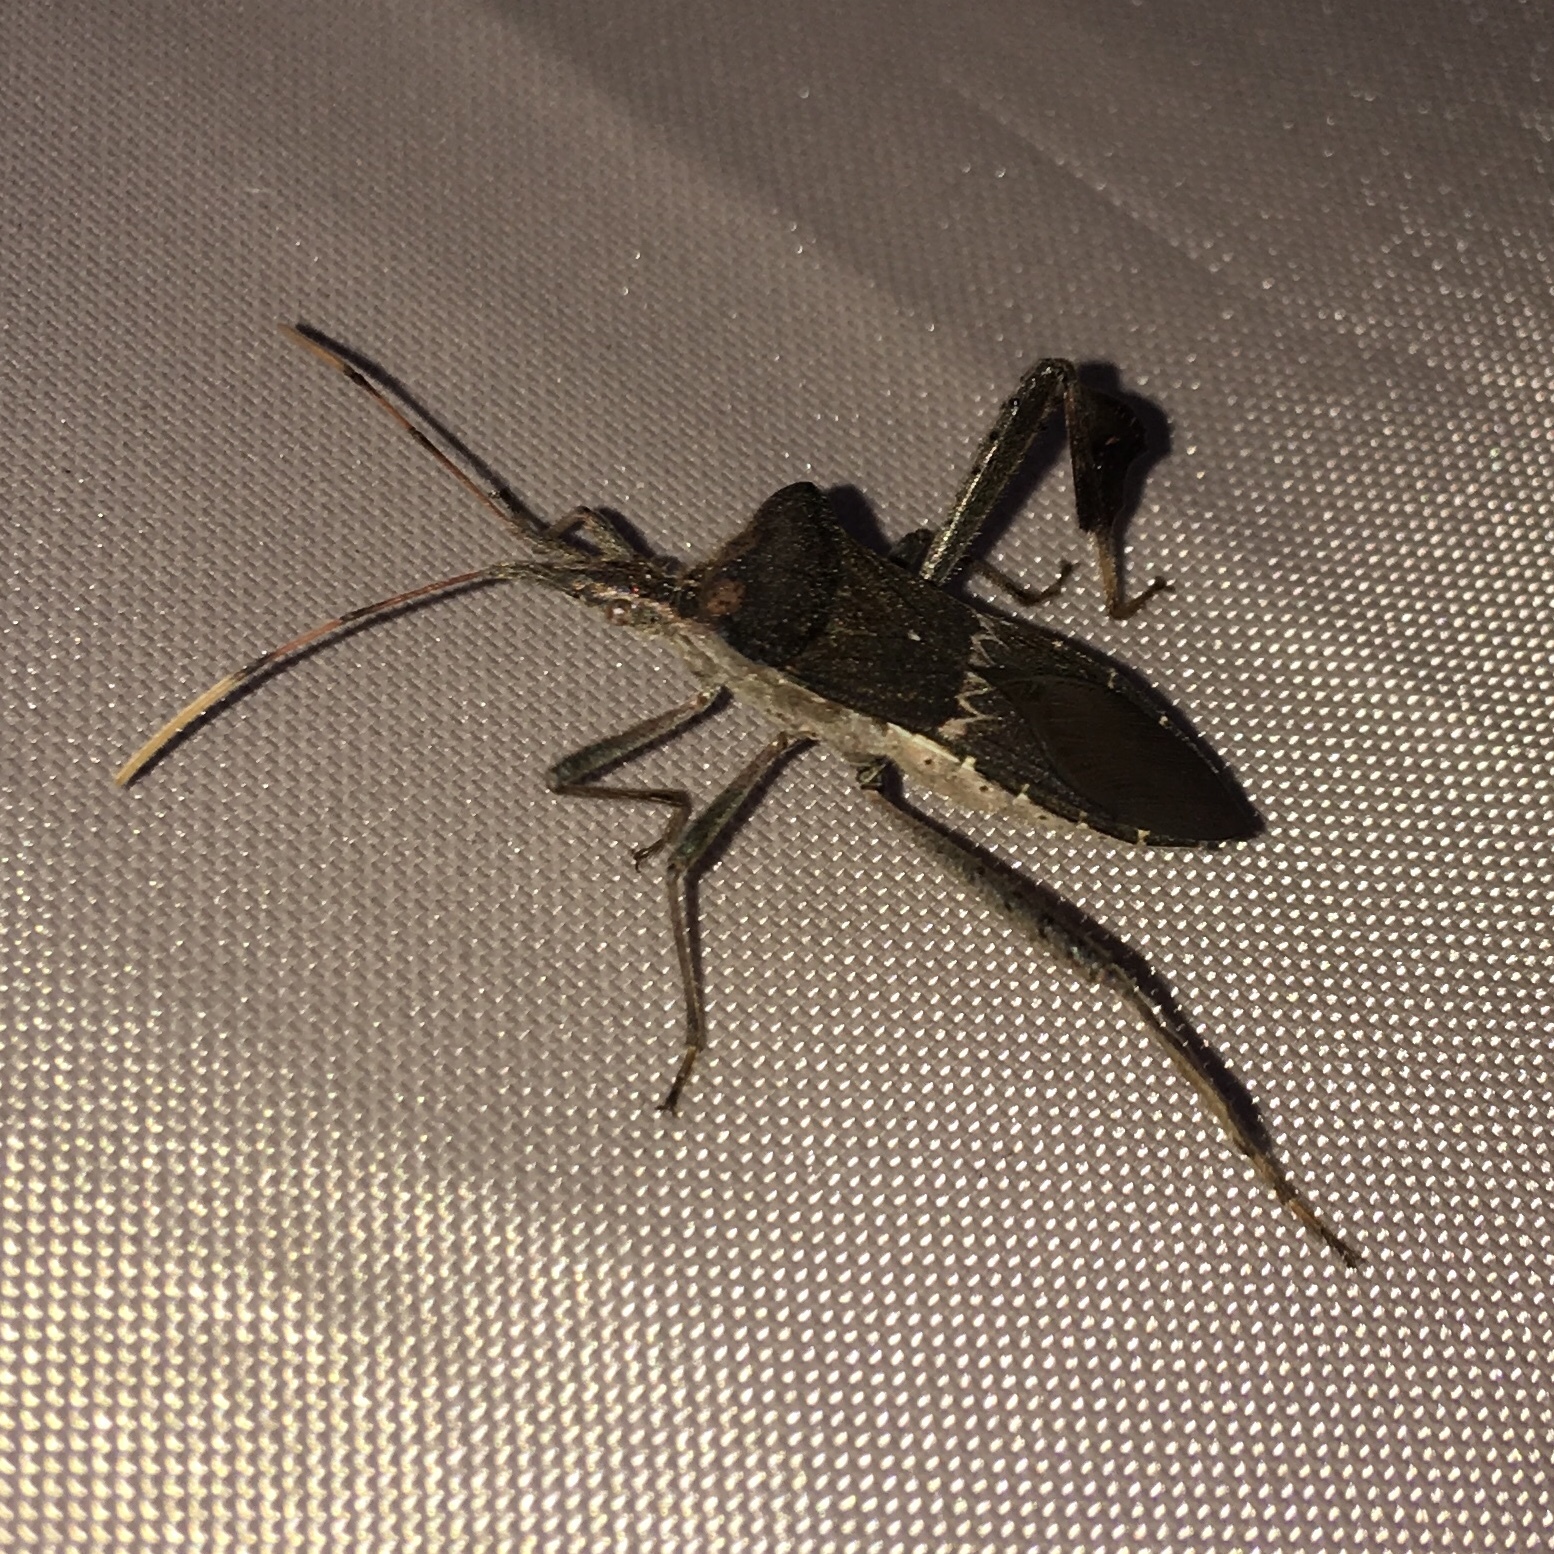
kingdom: Animalia
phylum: Arthropoda
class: Insecta
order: Hemiptera
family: Coreidae
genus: Leptoglossus
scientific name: Leptoglossus zonatus
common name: Large-legged bug
